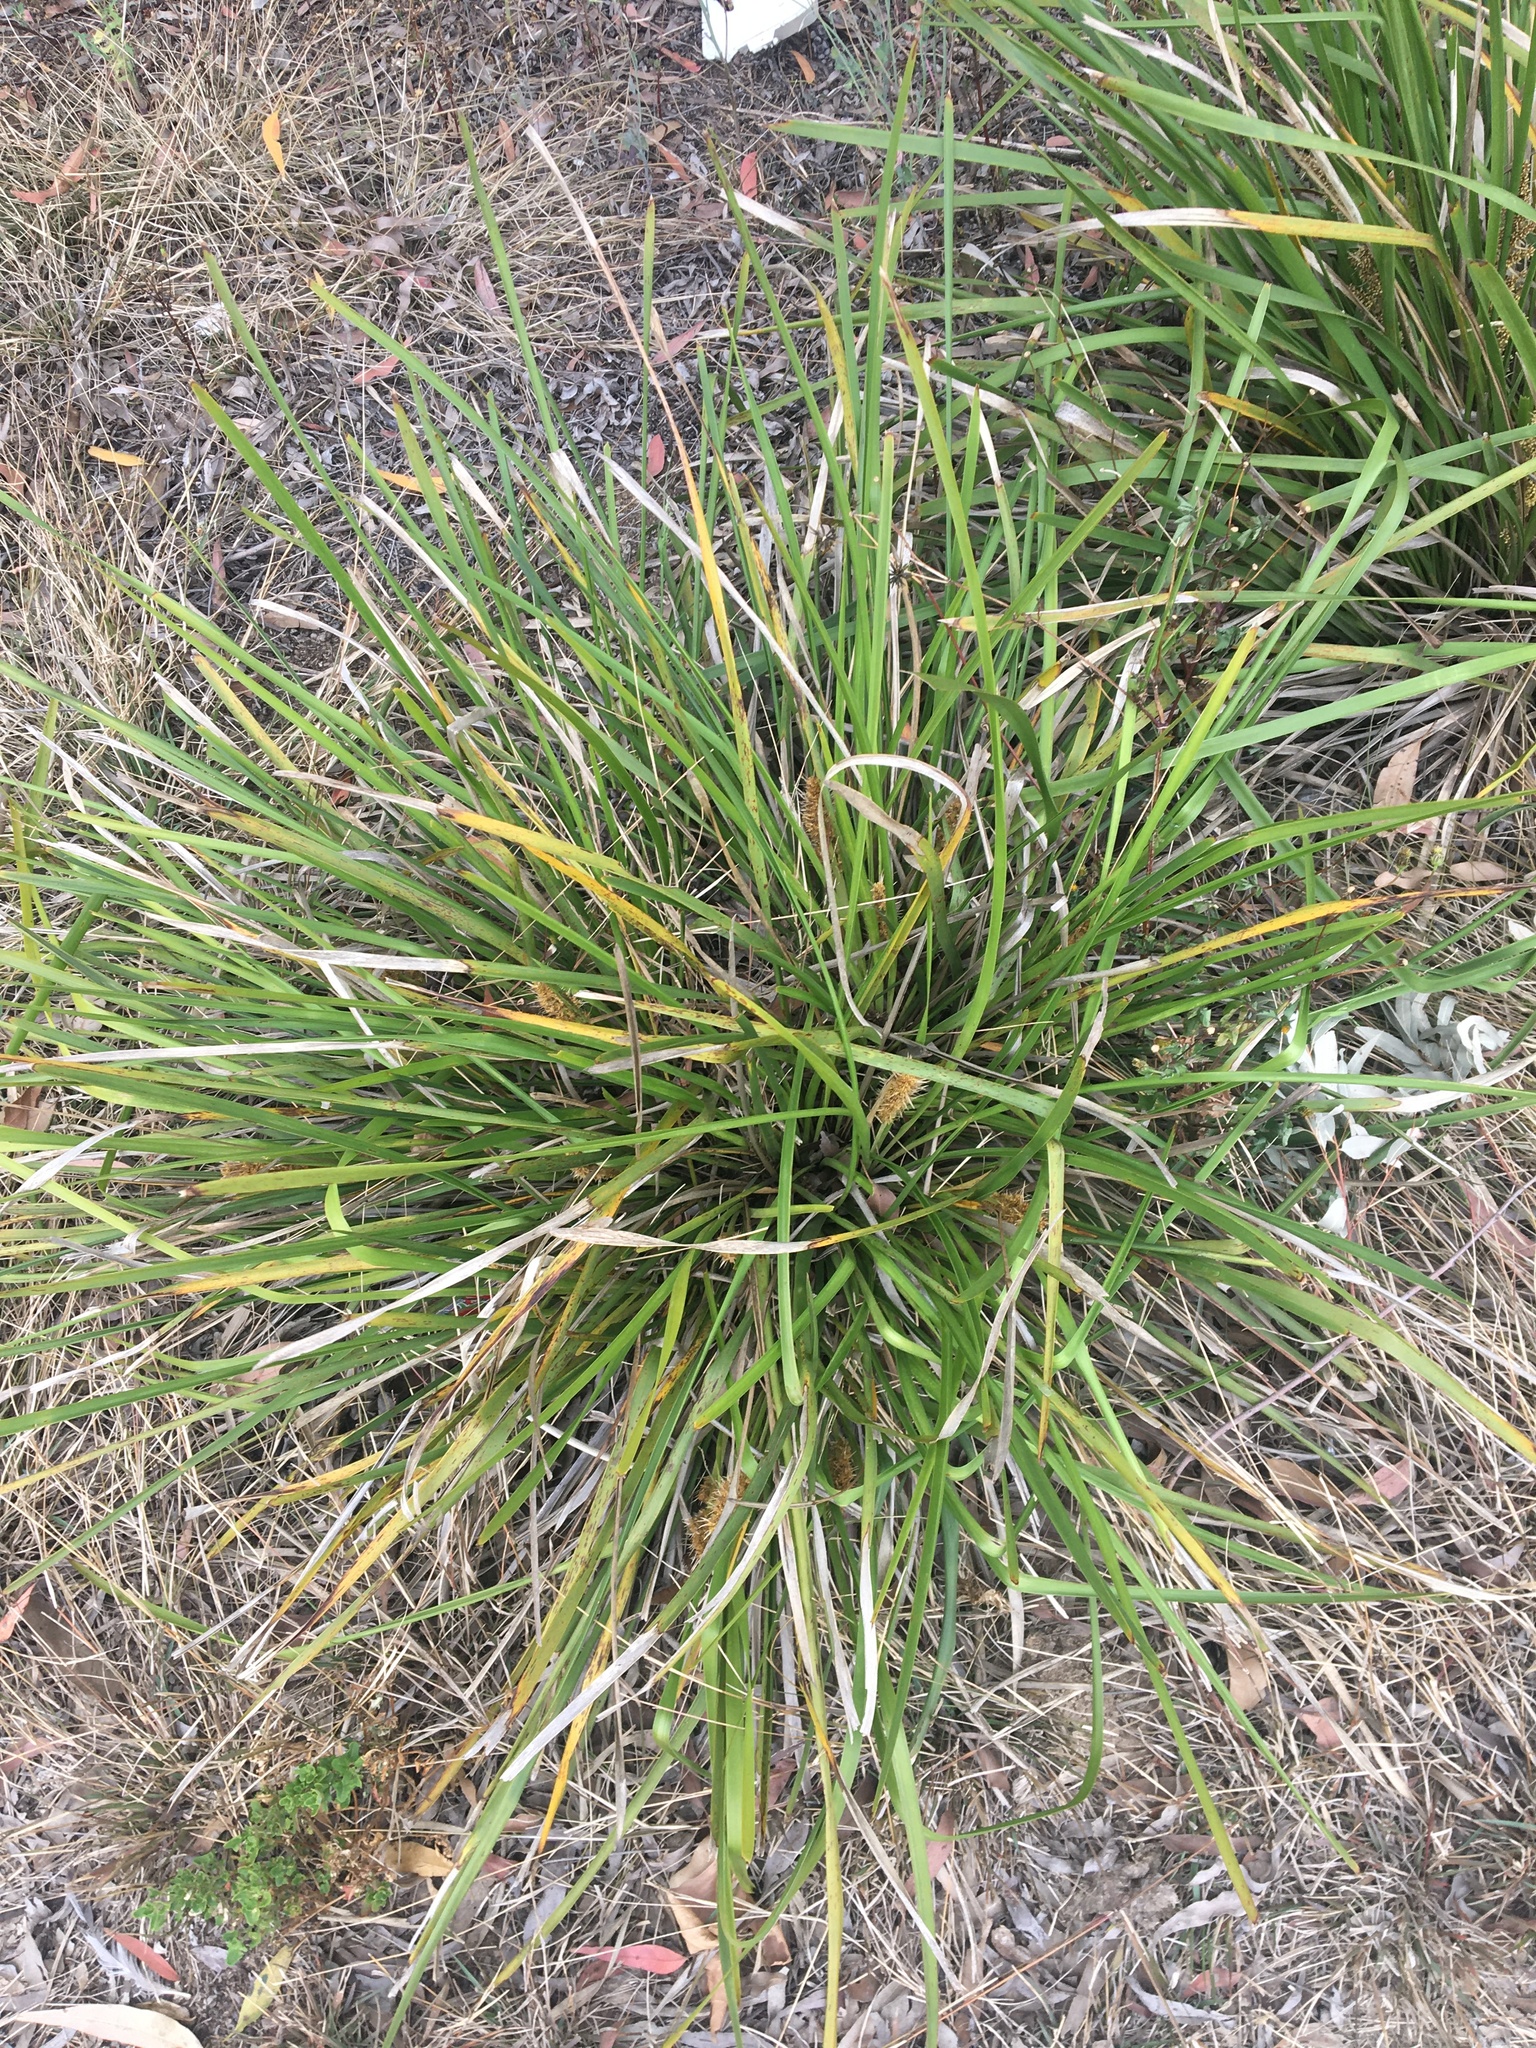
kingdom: Plantae
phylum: Tracheophyta
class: Liliopsida
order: Asparagales
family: Asparagaceae
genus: Lomandra
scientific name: Lomandra longifolia
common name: Longleaf mat-rush
